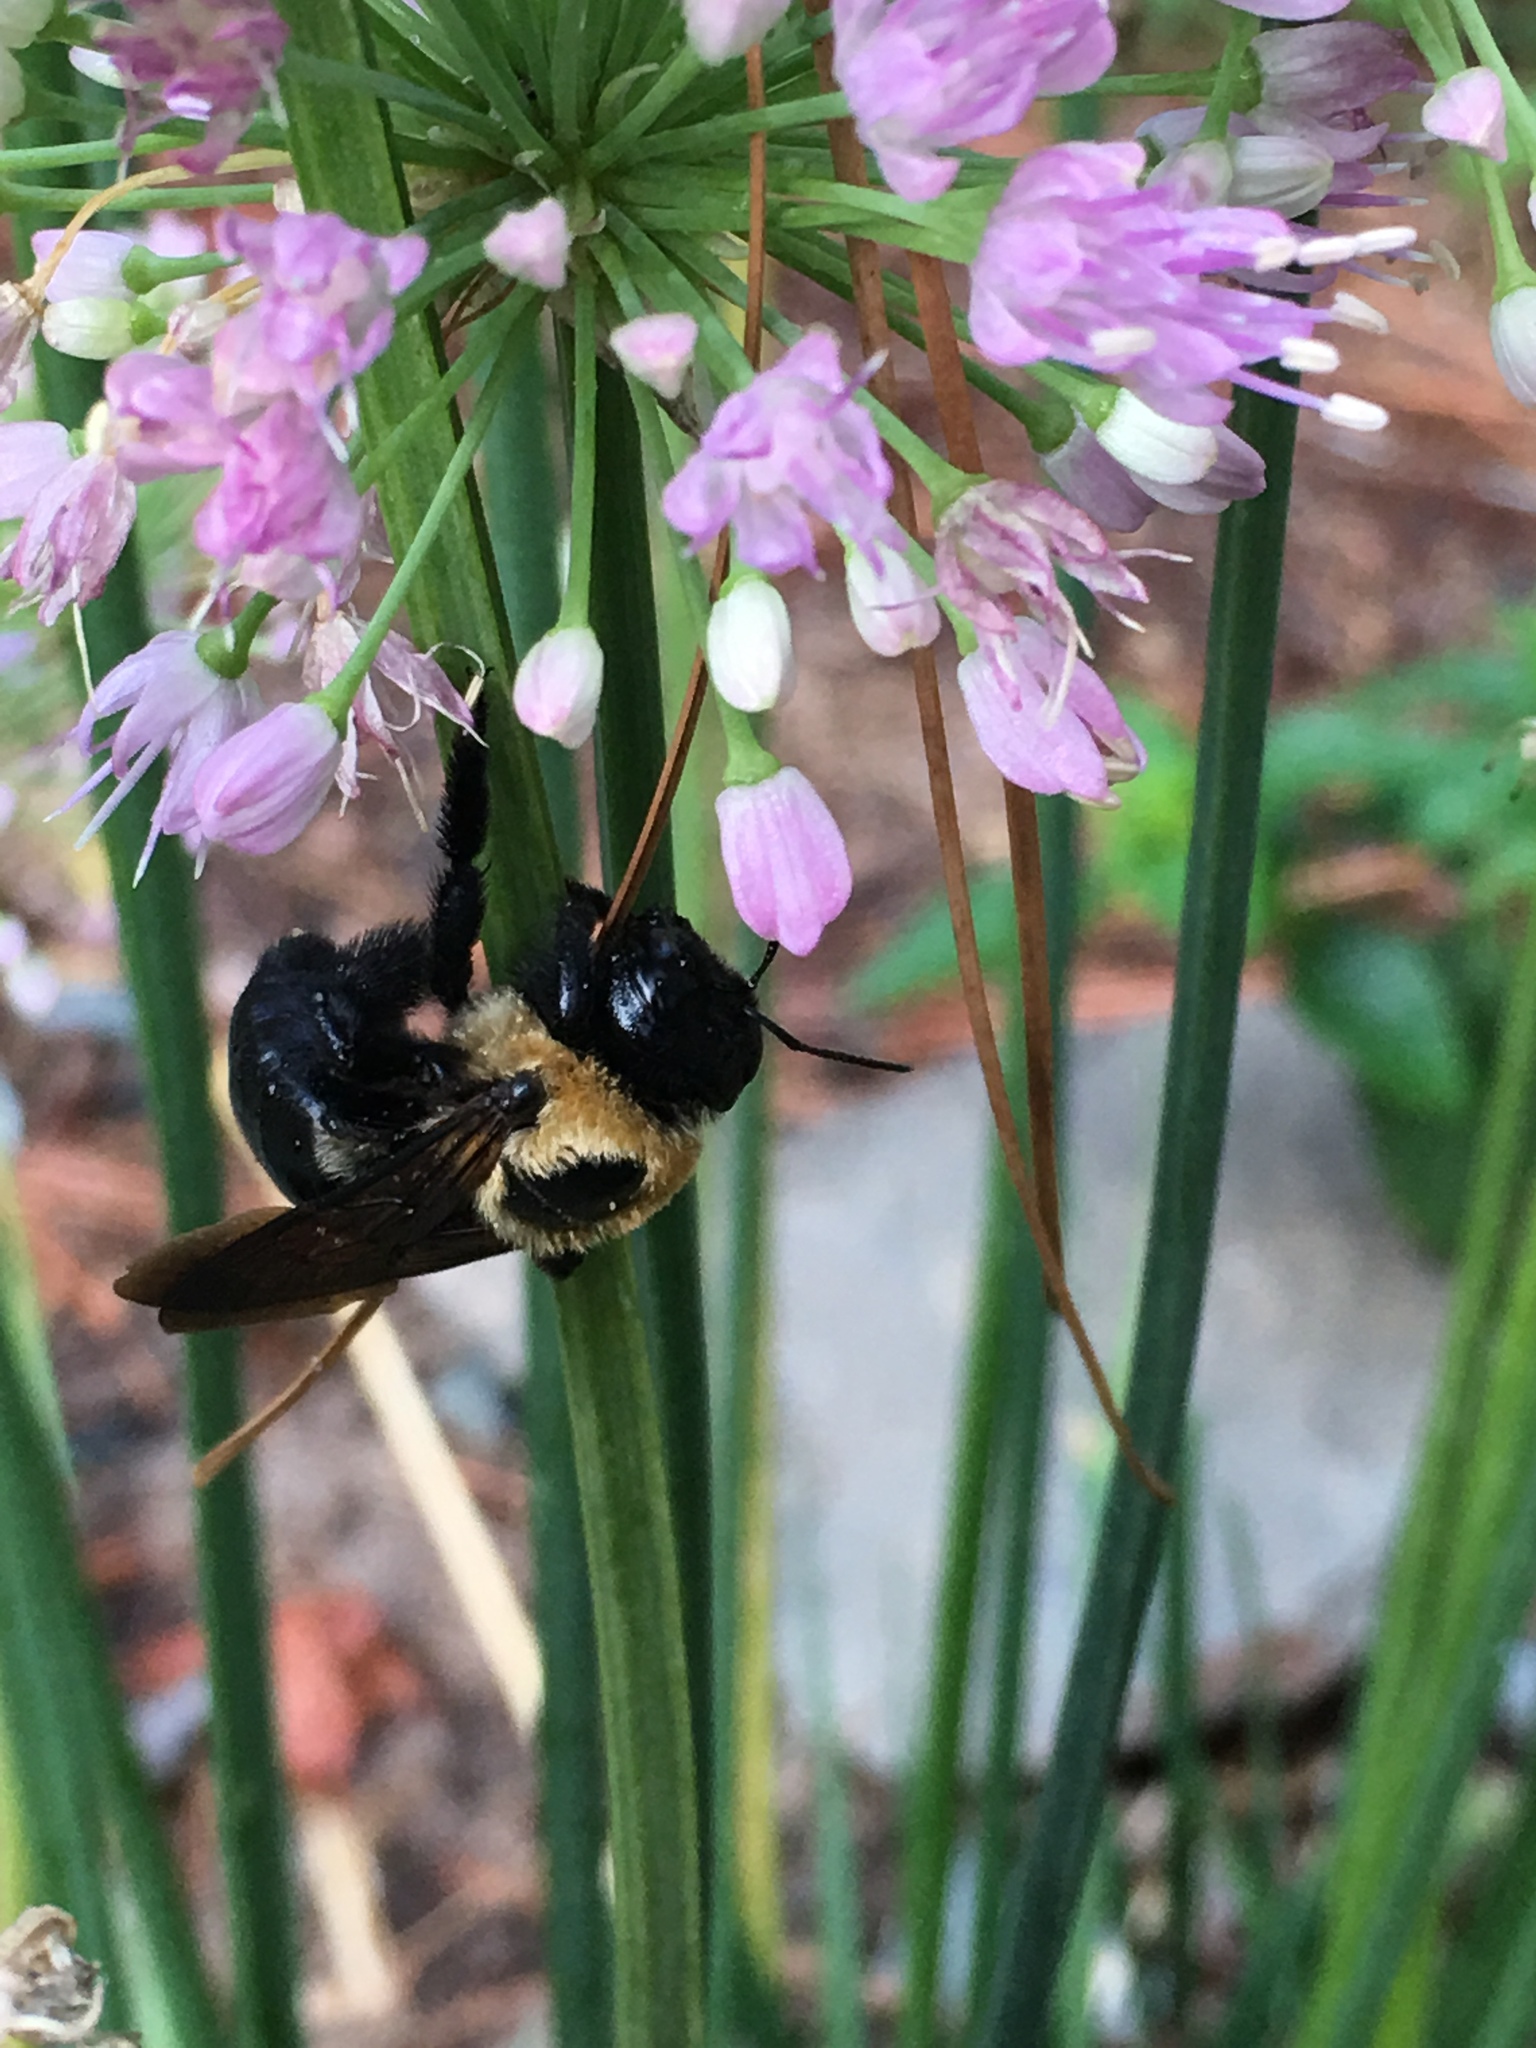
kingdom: Animalia
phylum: Arthropoda
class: Insecta
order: Hymenoptera
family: Apidae
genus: Xylocopa
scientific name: Xylocopa virginica
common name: Carpenter bee
